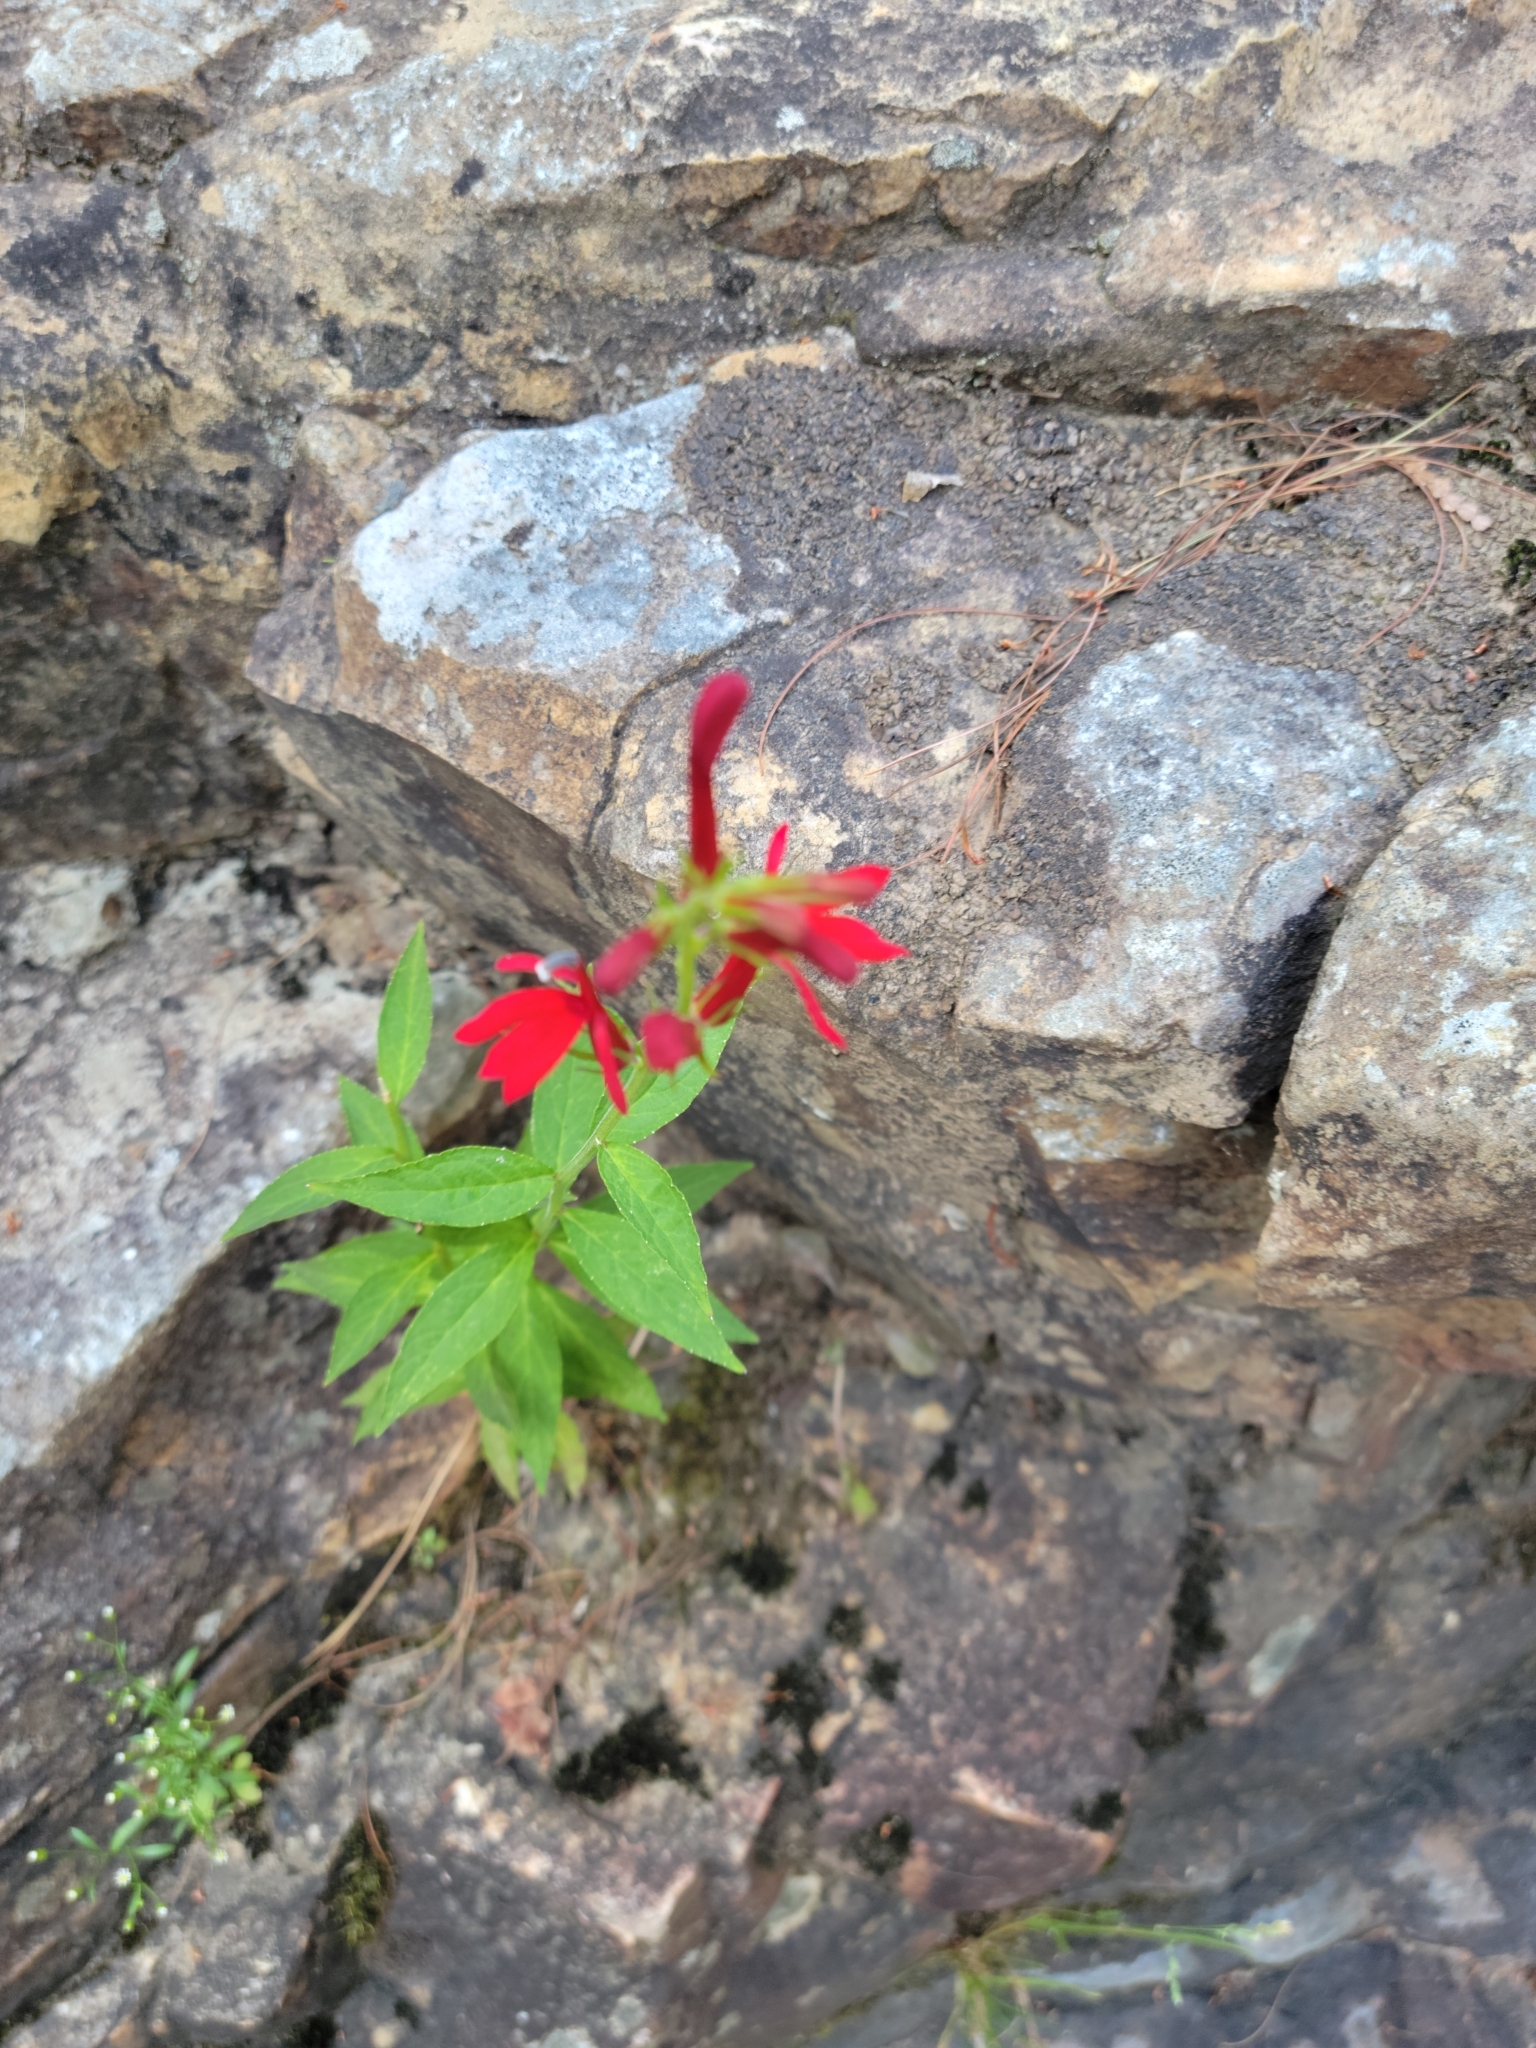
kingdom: Plantae
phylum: Tracheophyta
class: Magnoliopsida
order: Asterales
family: Campanulaceae
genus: Lobelia
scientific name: Lobelia cardinalis
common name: Cardinal flower
